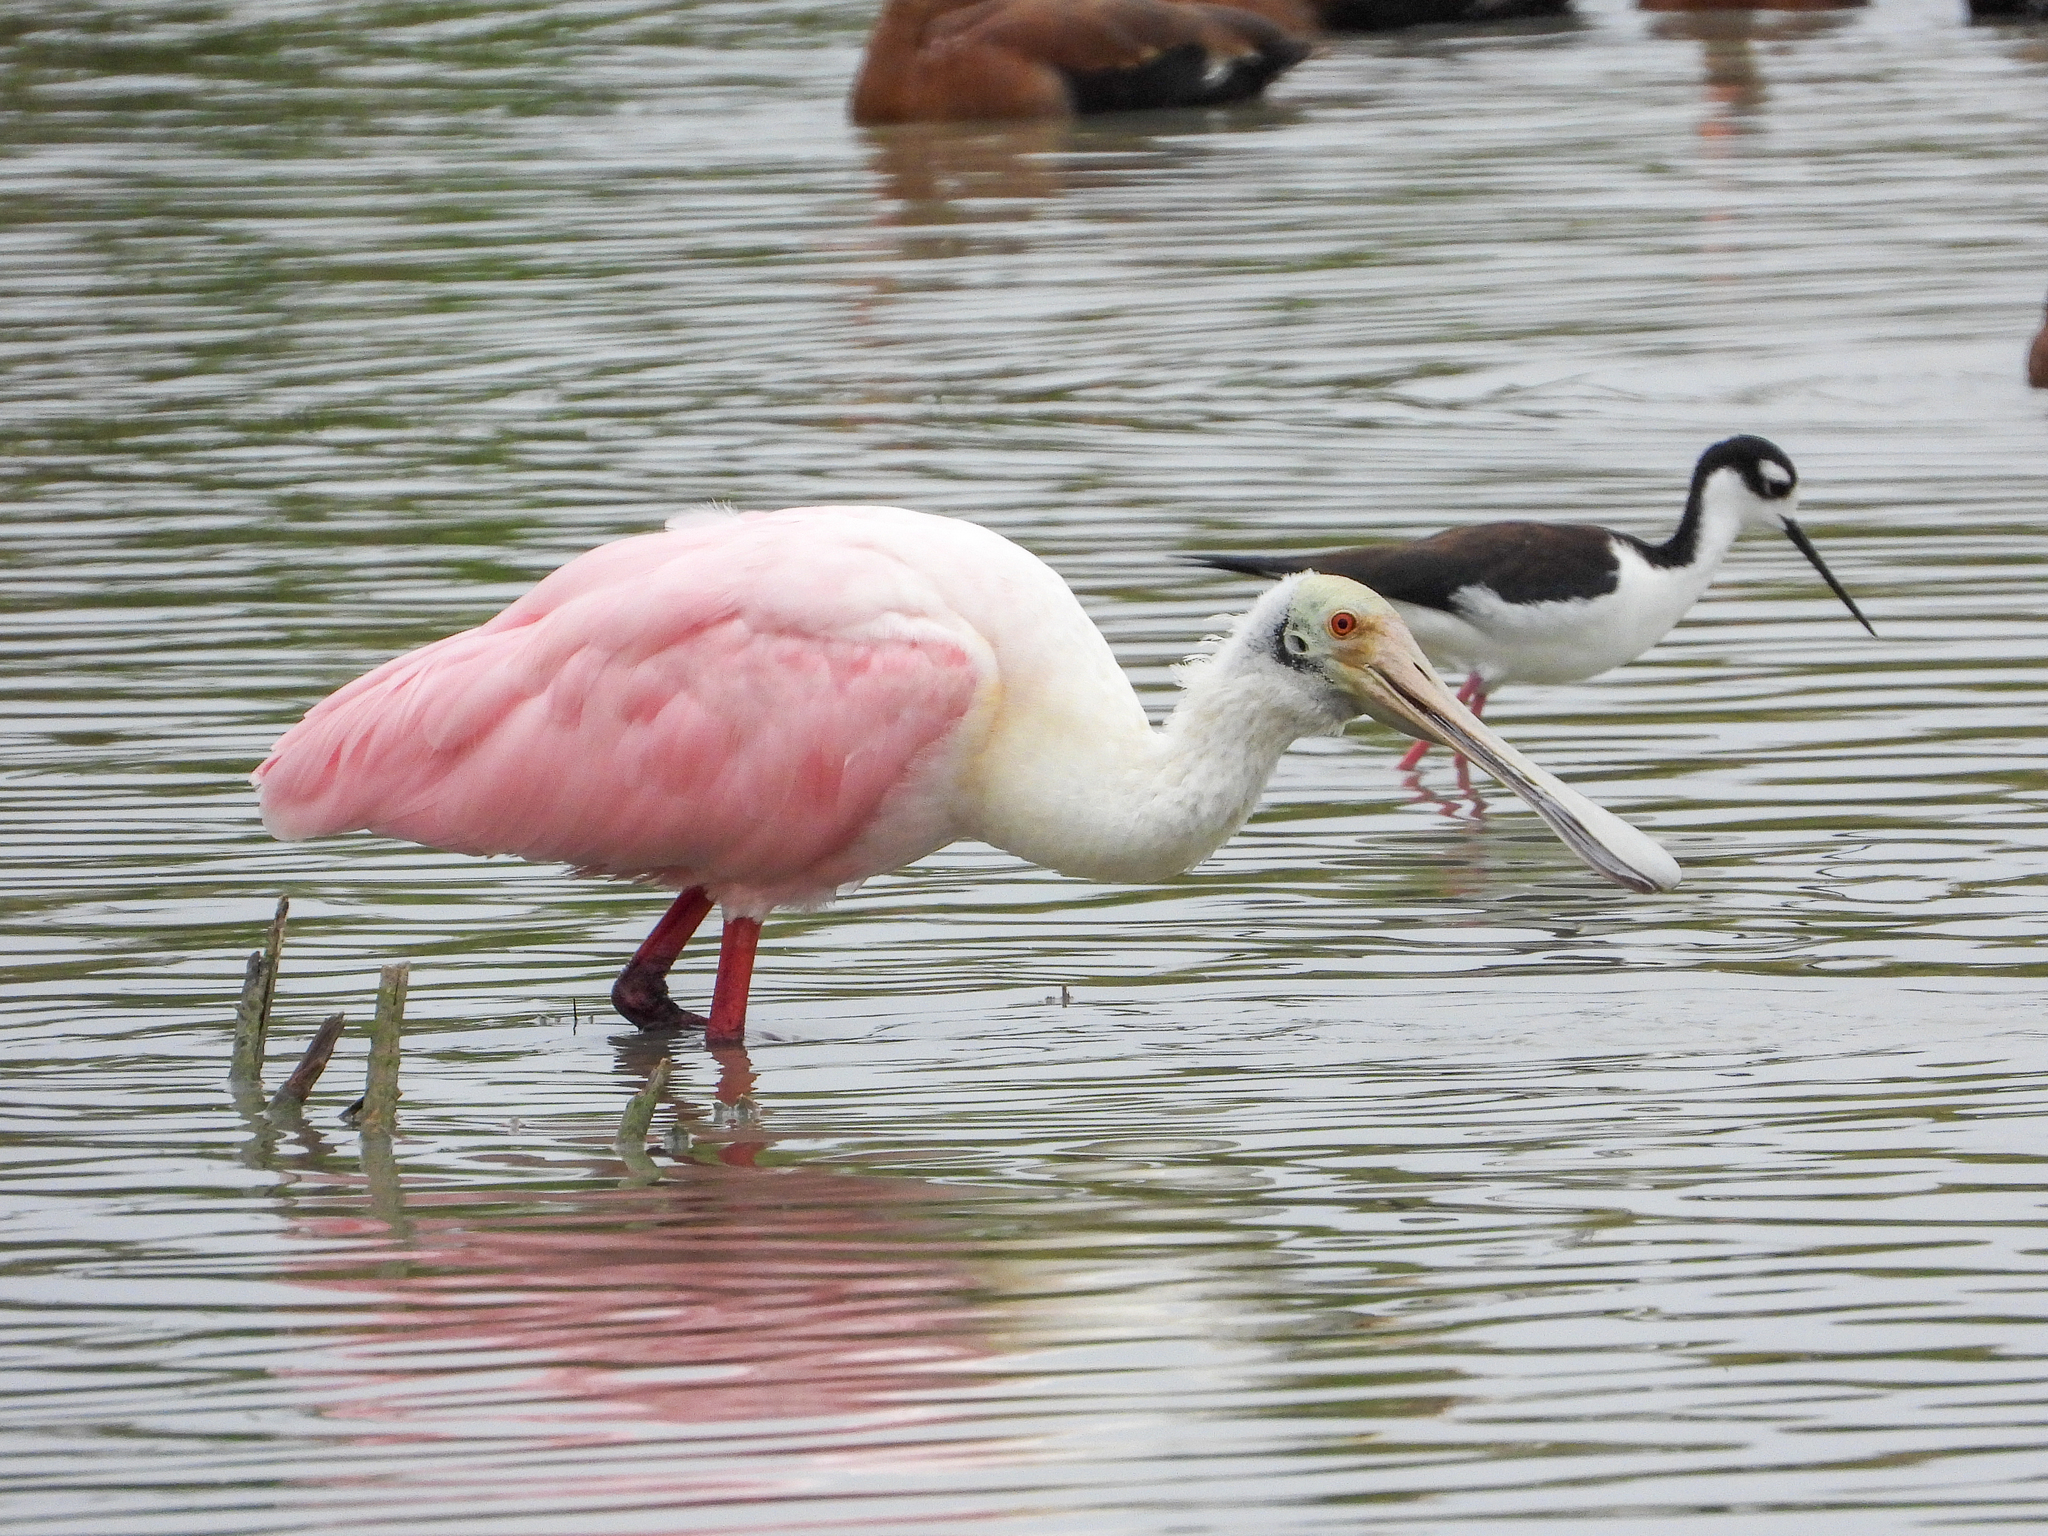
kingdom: Animalia
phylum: Chordata
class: Aves
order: Pelecaniformes
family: Threskiornithidae
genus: Platalea
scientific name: Platalea ajaja
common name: Roseate spoonbill
